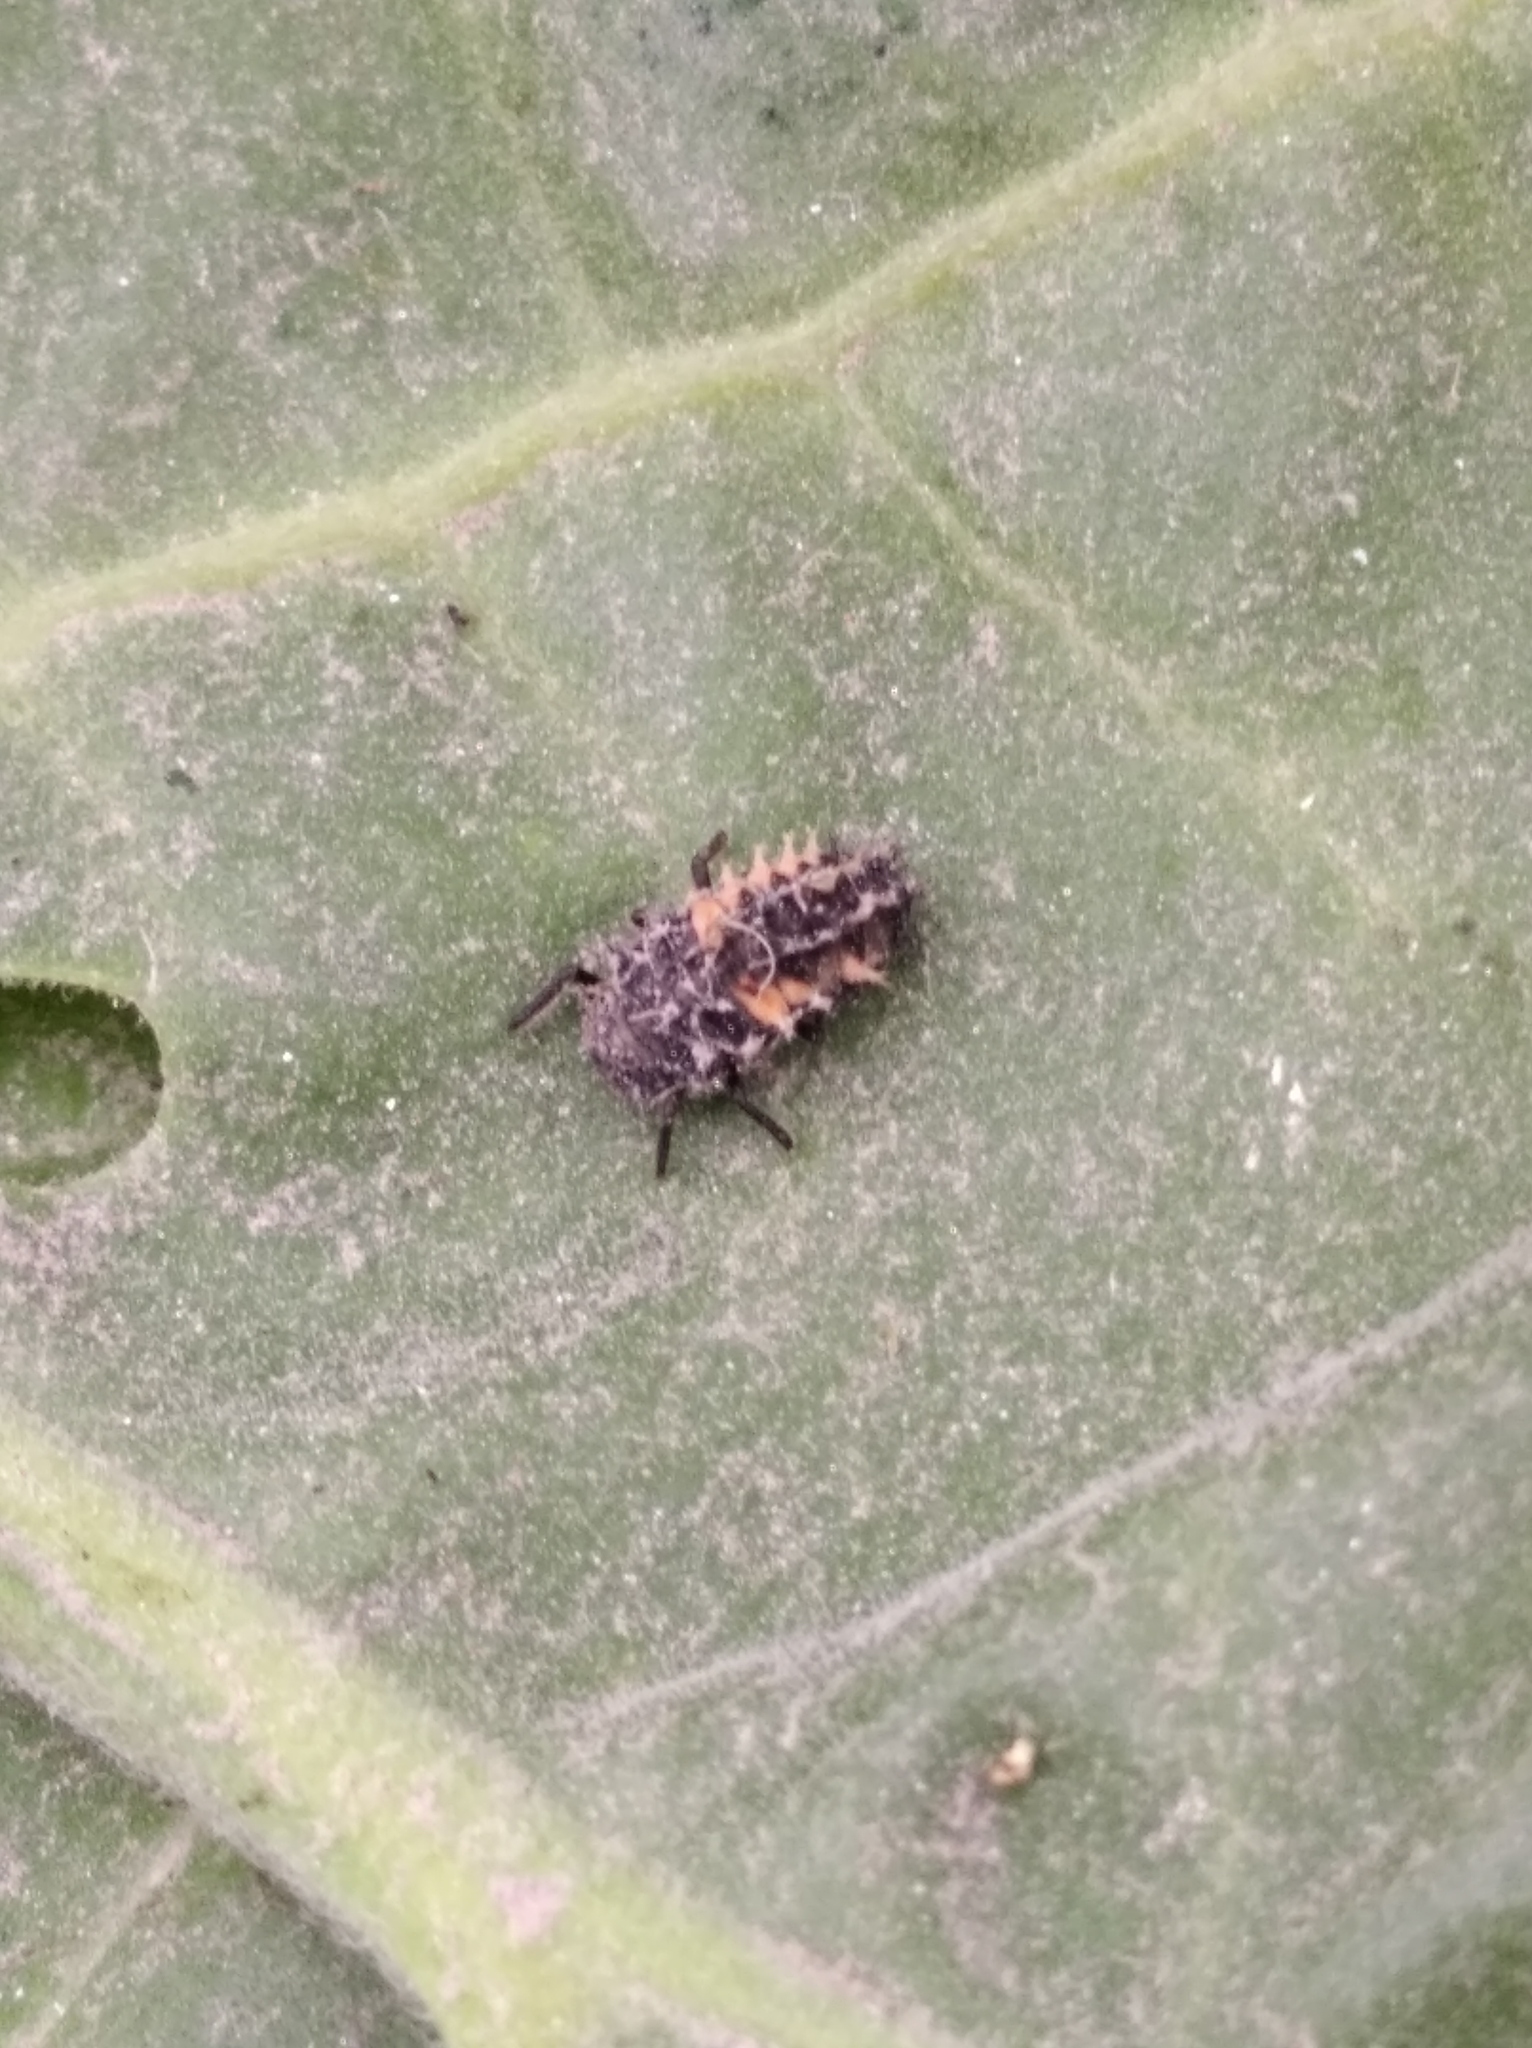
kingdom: Animalia
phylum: Arthropoda
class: Insecta
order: Coleoptera
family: Coccinellidae
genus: Harmonia
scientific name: Harmonia axyridis
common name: Harlequin ladybird
